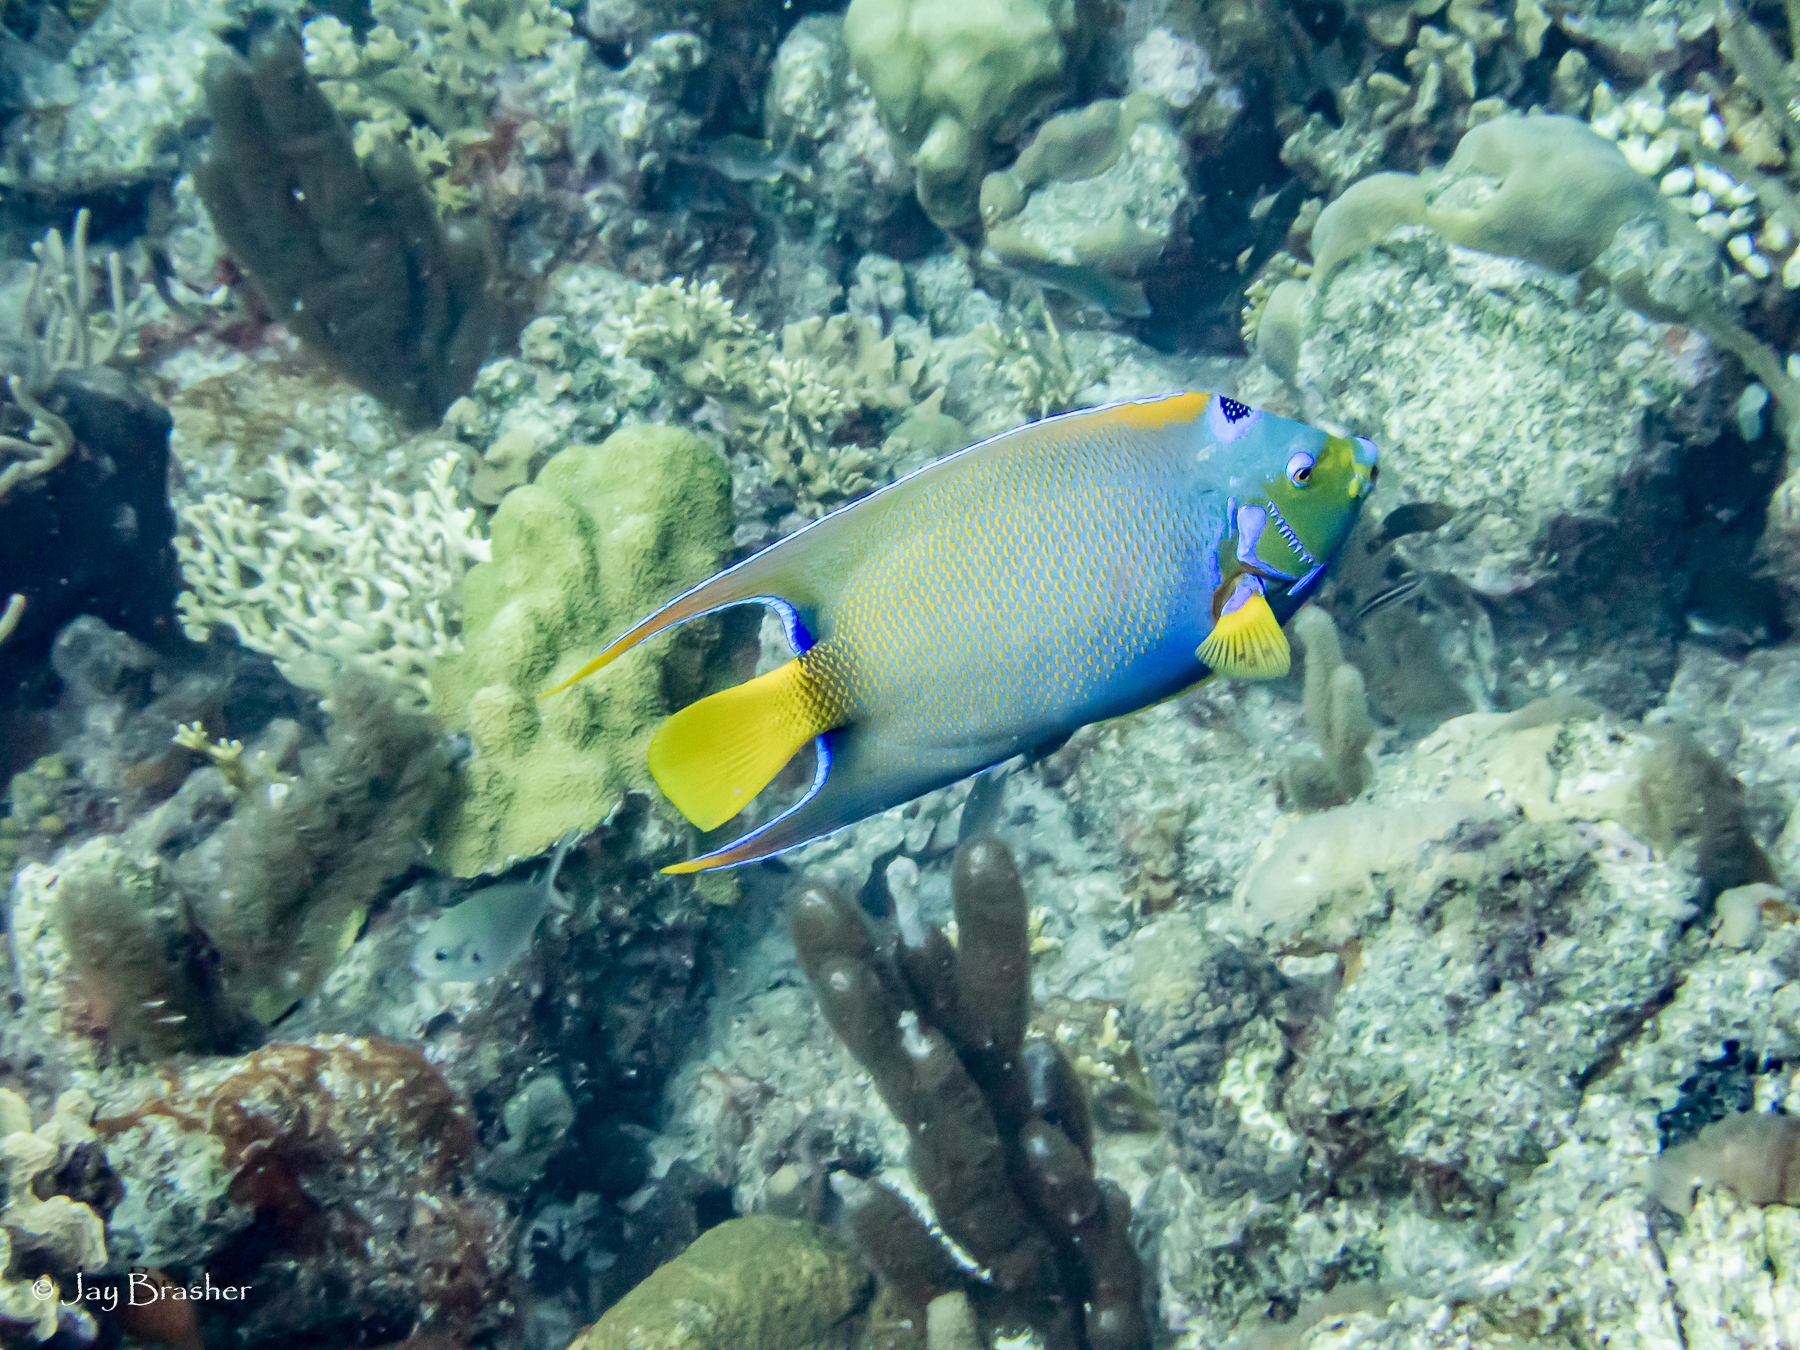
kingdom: Animalia
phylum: Chordata
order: Perciformes
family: Pomacanthidae
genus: Holacanthus
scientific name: Holacanthus ciliaris
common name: Queen angelfish
